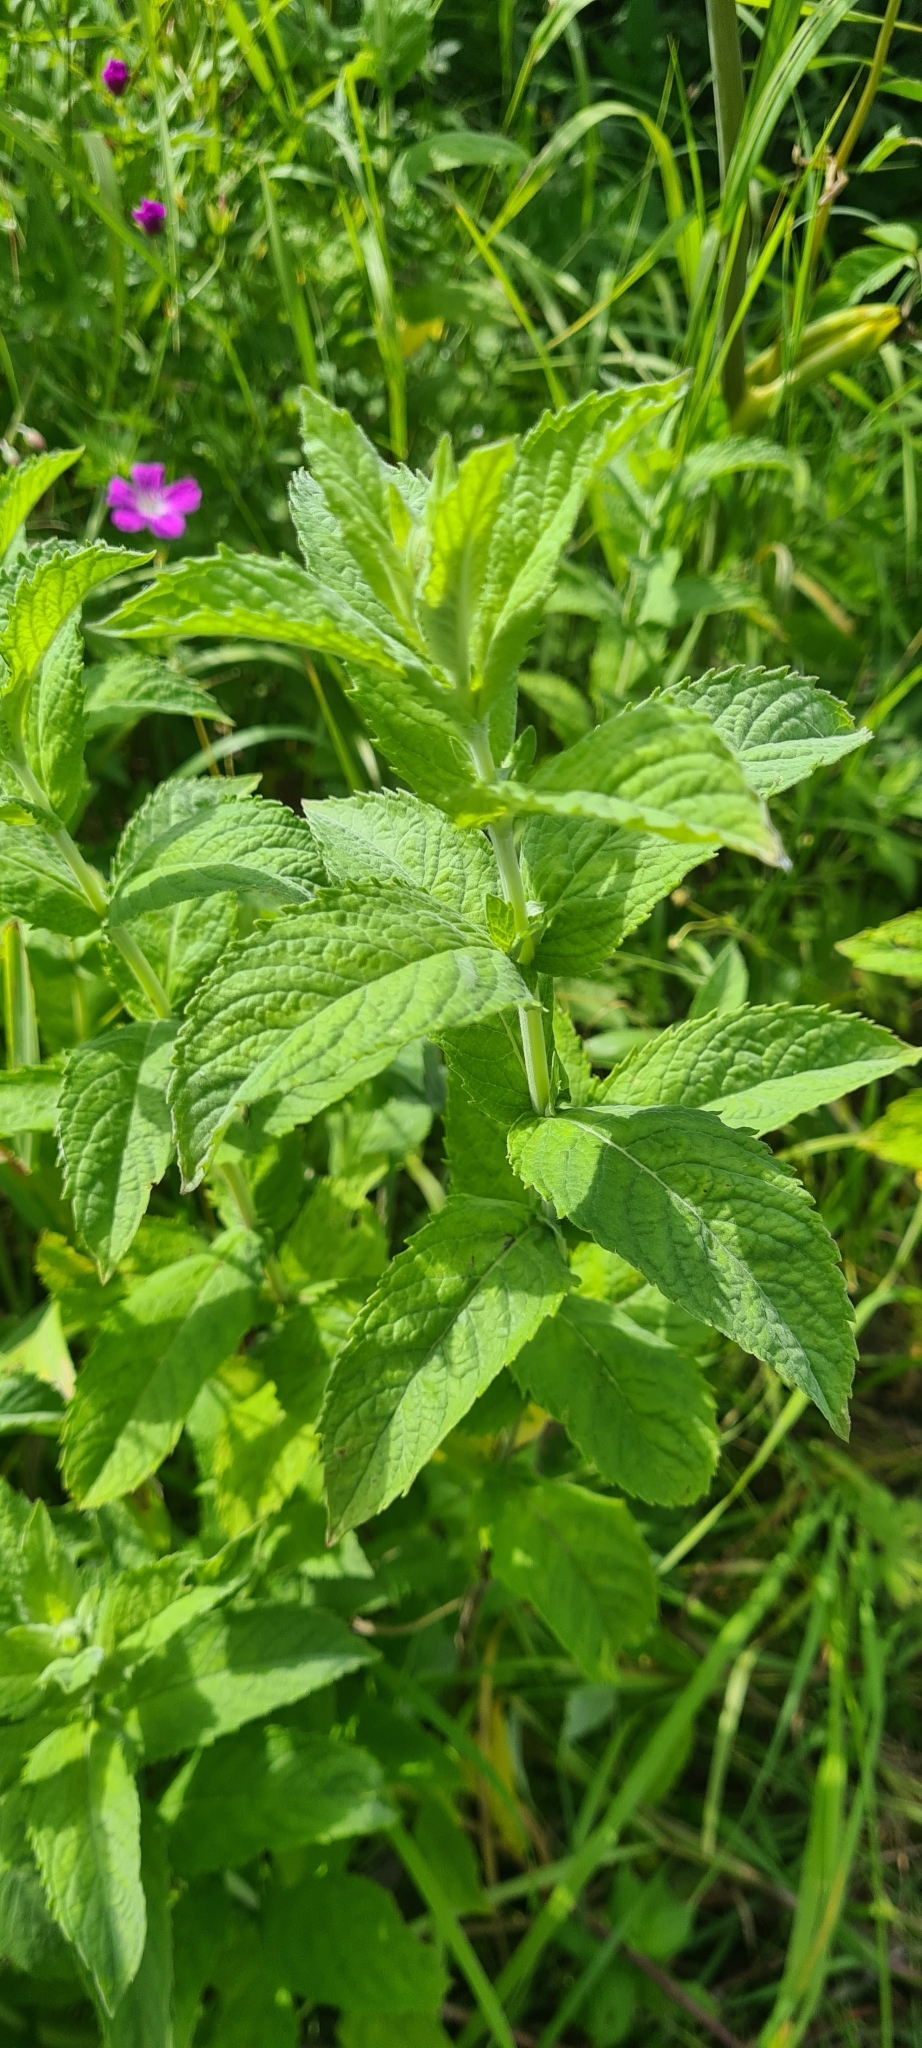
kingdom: Plantae
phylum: Tracheophyta
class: Magnoliopsida
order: Lamiales
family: Lamiaceae
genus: Mentha
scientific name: Mentha longifolia
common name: Horse mint
